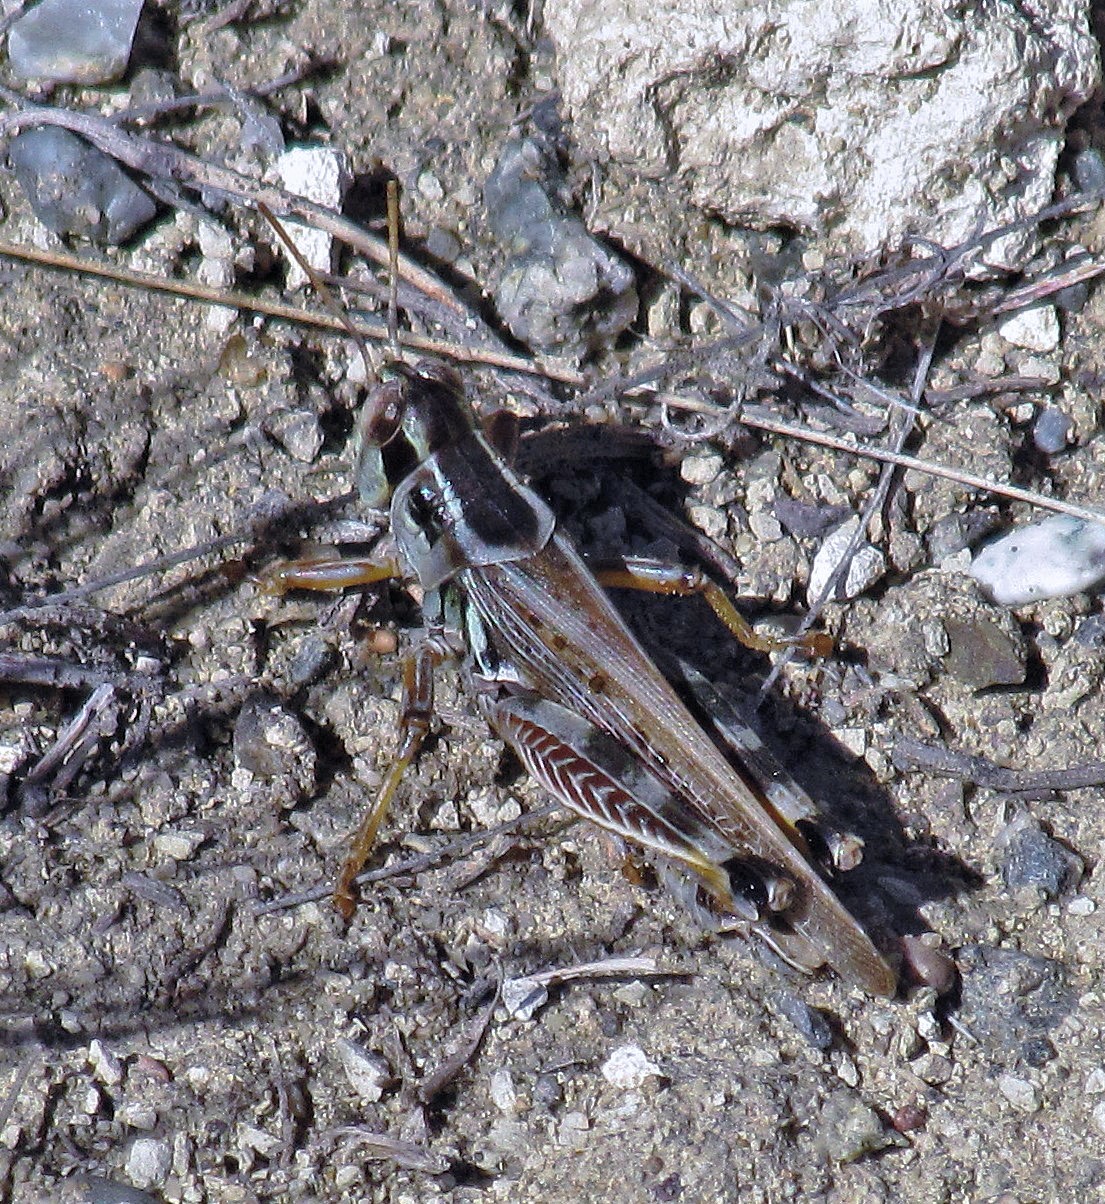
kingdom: Animalia
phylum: Arthropoda
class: Insecta
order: Orthoptera
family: Acrididae
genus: Dichroplus
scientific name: Dichroplus maculipennis
